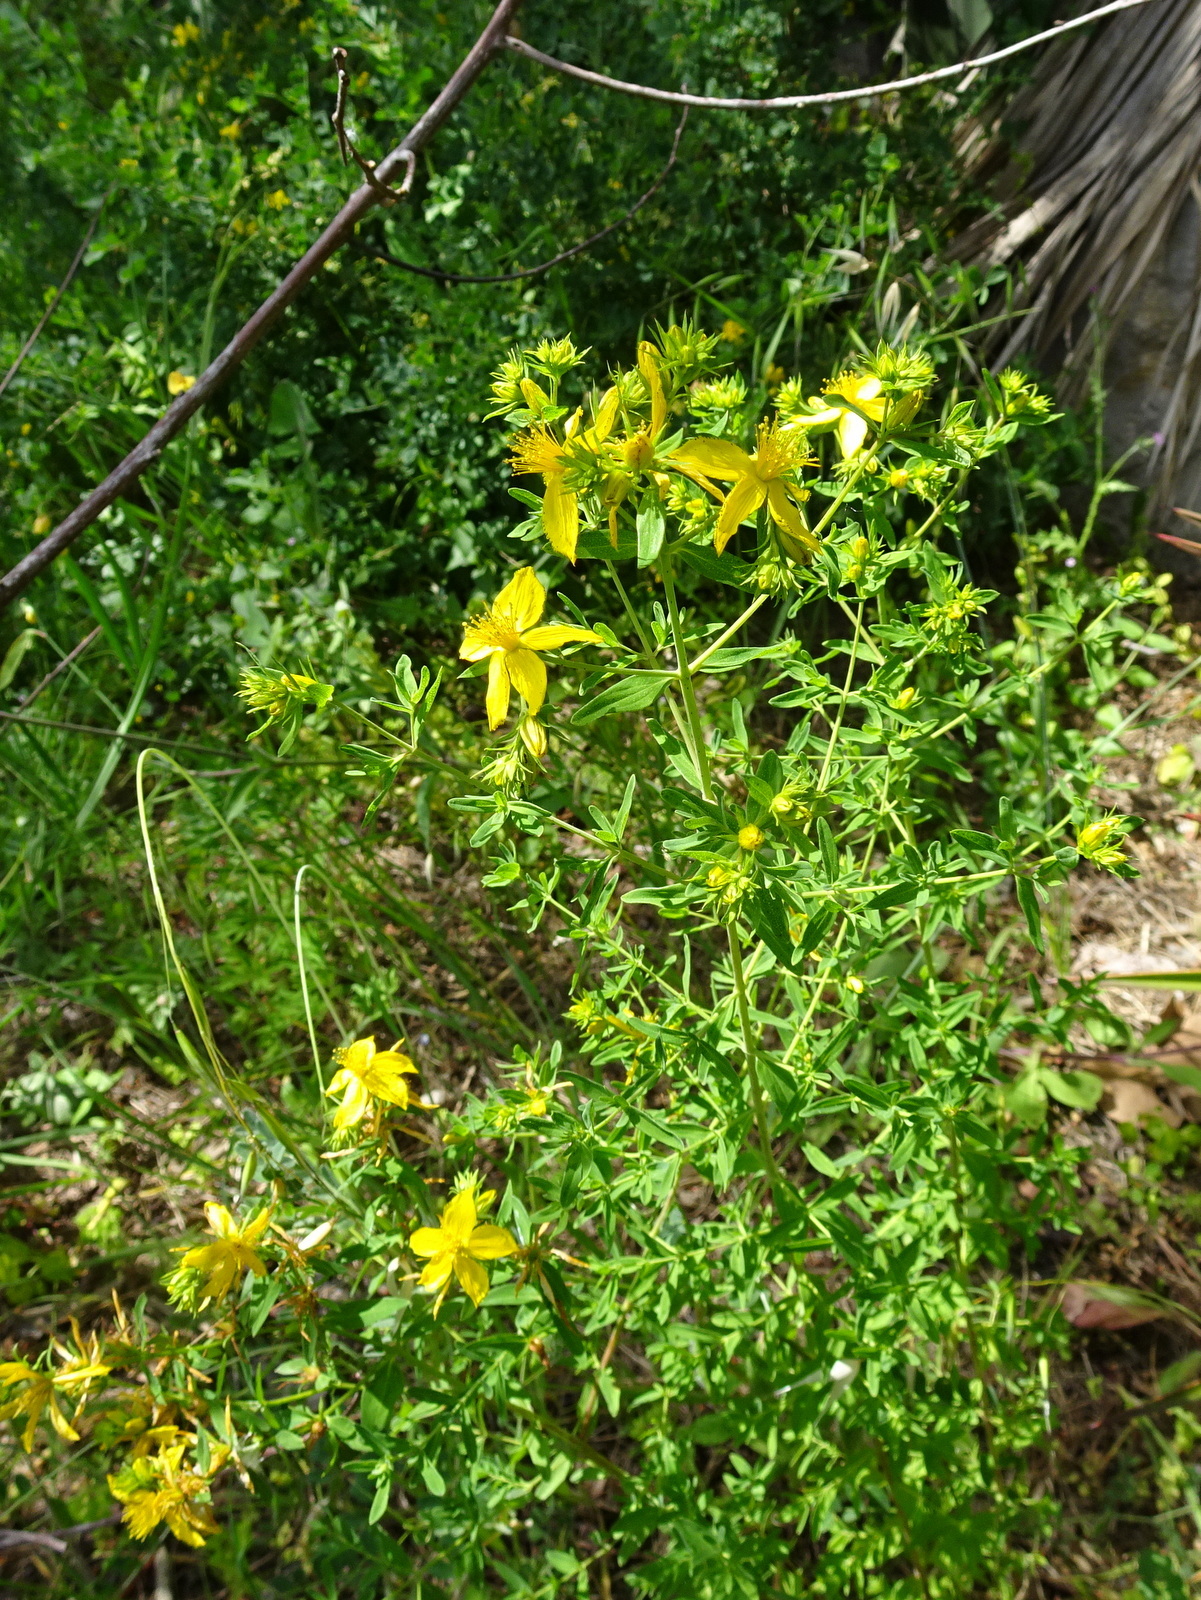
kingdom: Plantae
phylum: Tracheophyta
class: Magnoliopsida
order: Malpighiales
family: Hypericaceae
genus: Hypericum
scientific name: Hypericum perforatum
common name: Common st. johnswort
